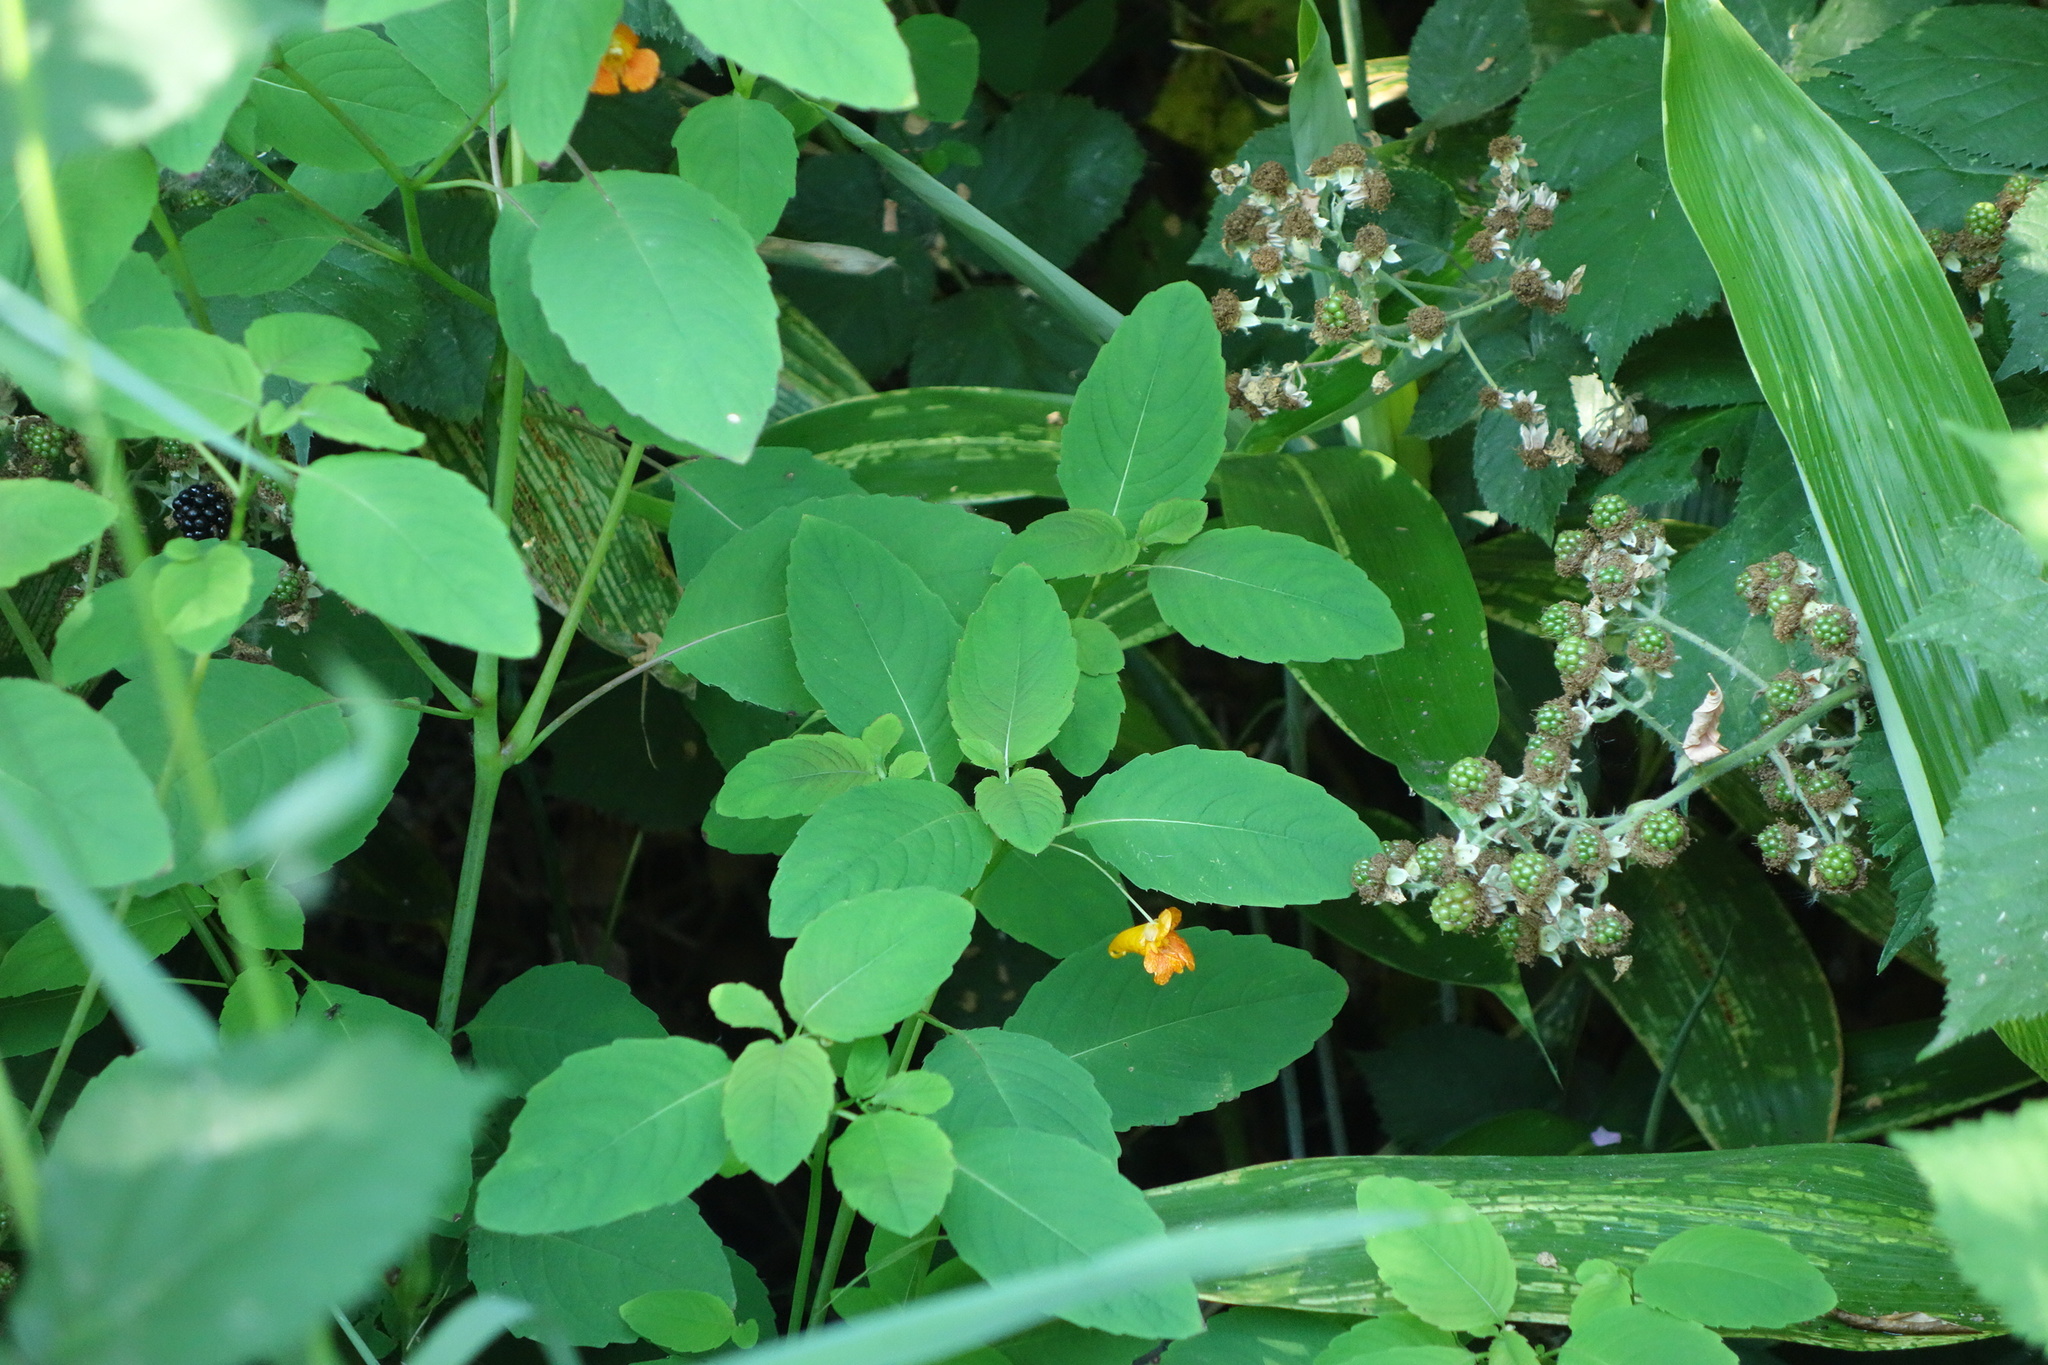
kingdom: Plantae
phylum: Tracheophyta
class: Magnoliopsida
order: Ericales
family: Balsaminaceae
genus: Impatiens
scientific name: Impatiens capensis
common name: Orange balsam
